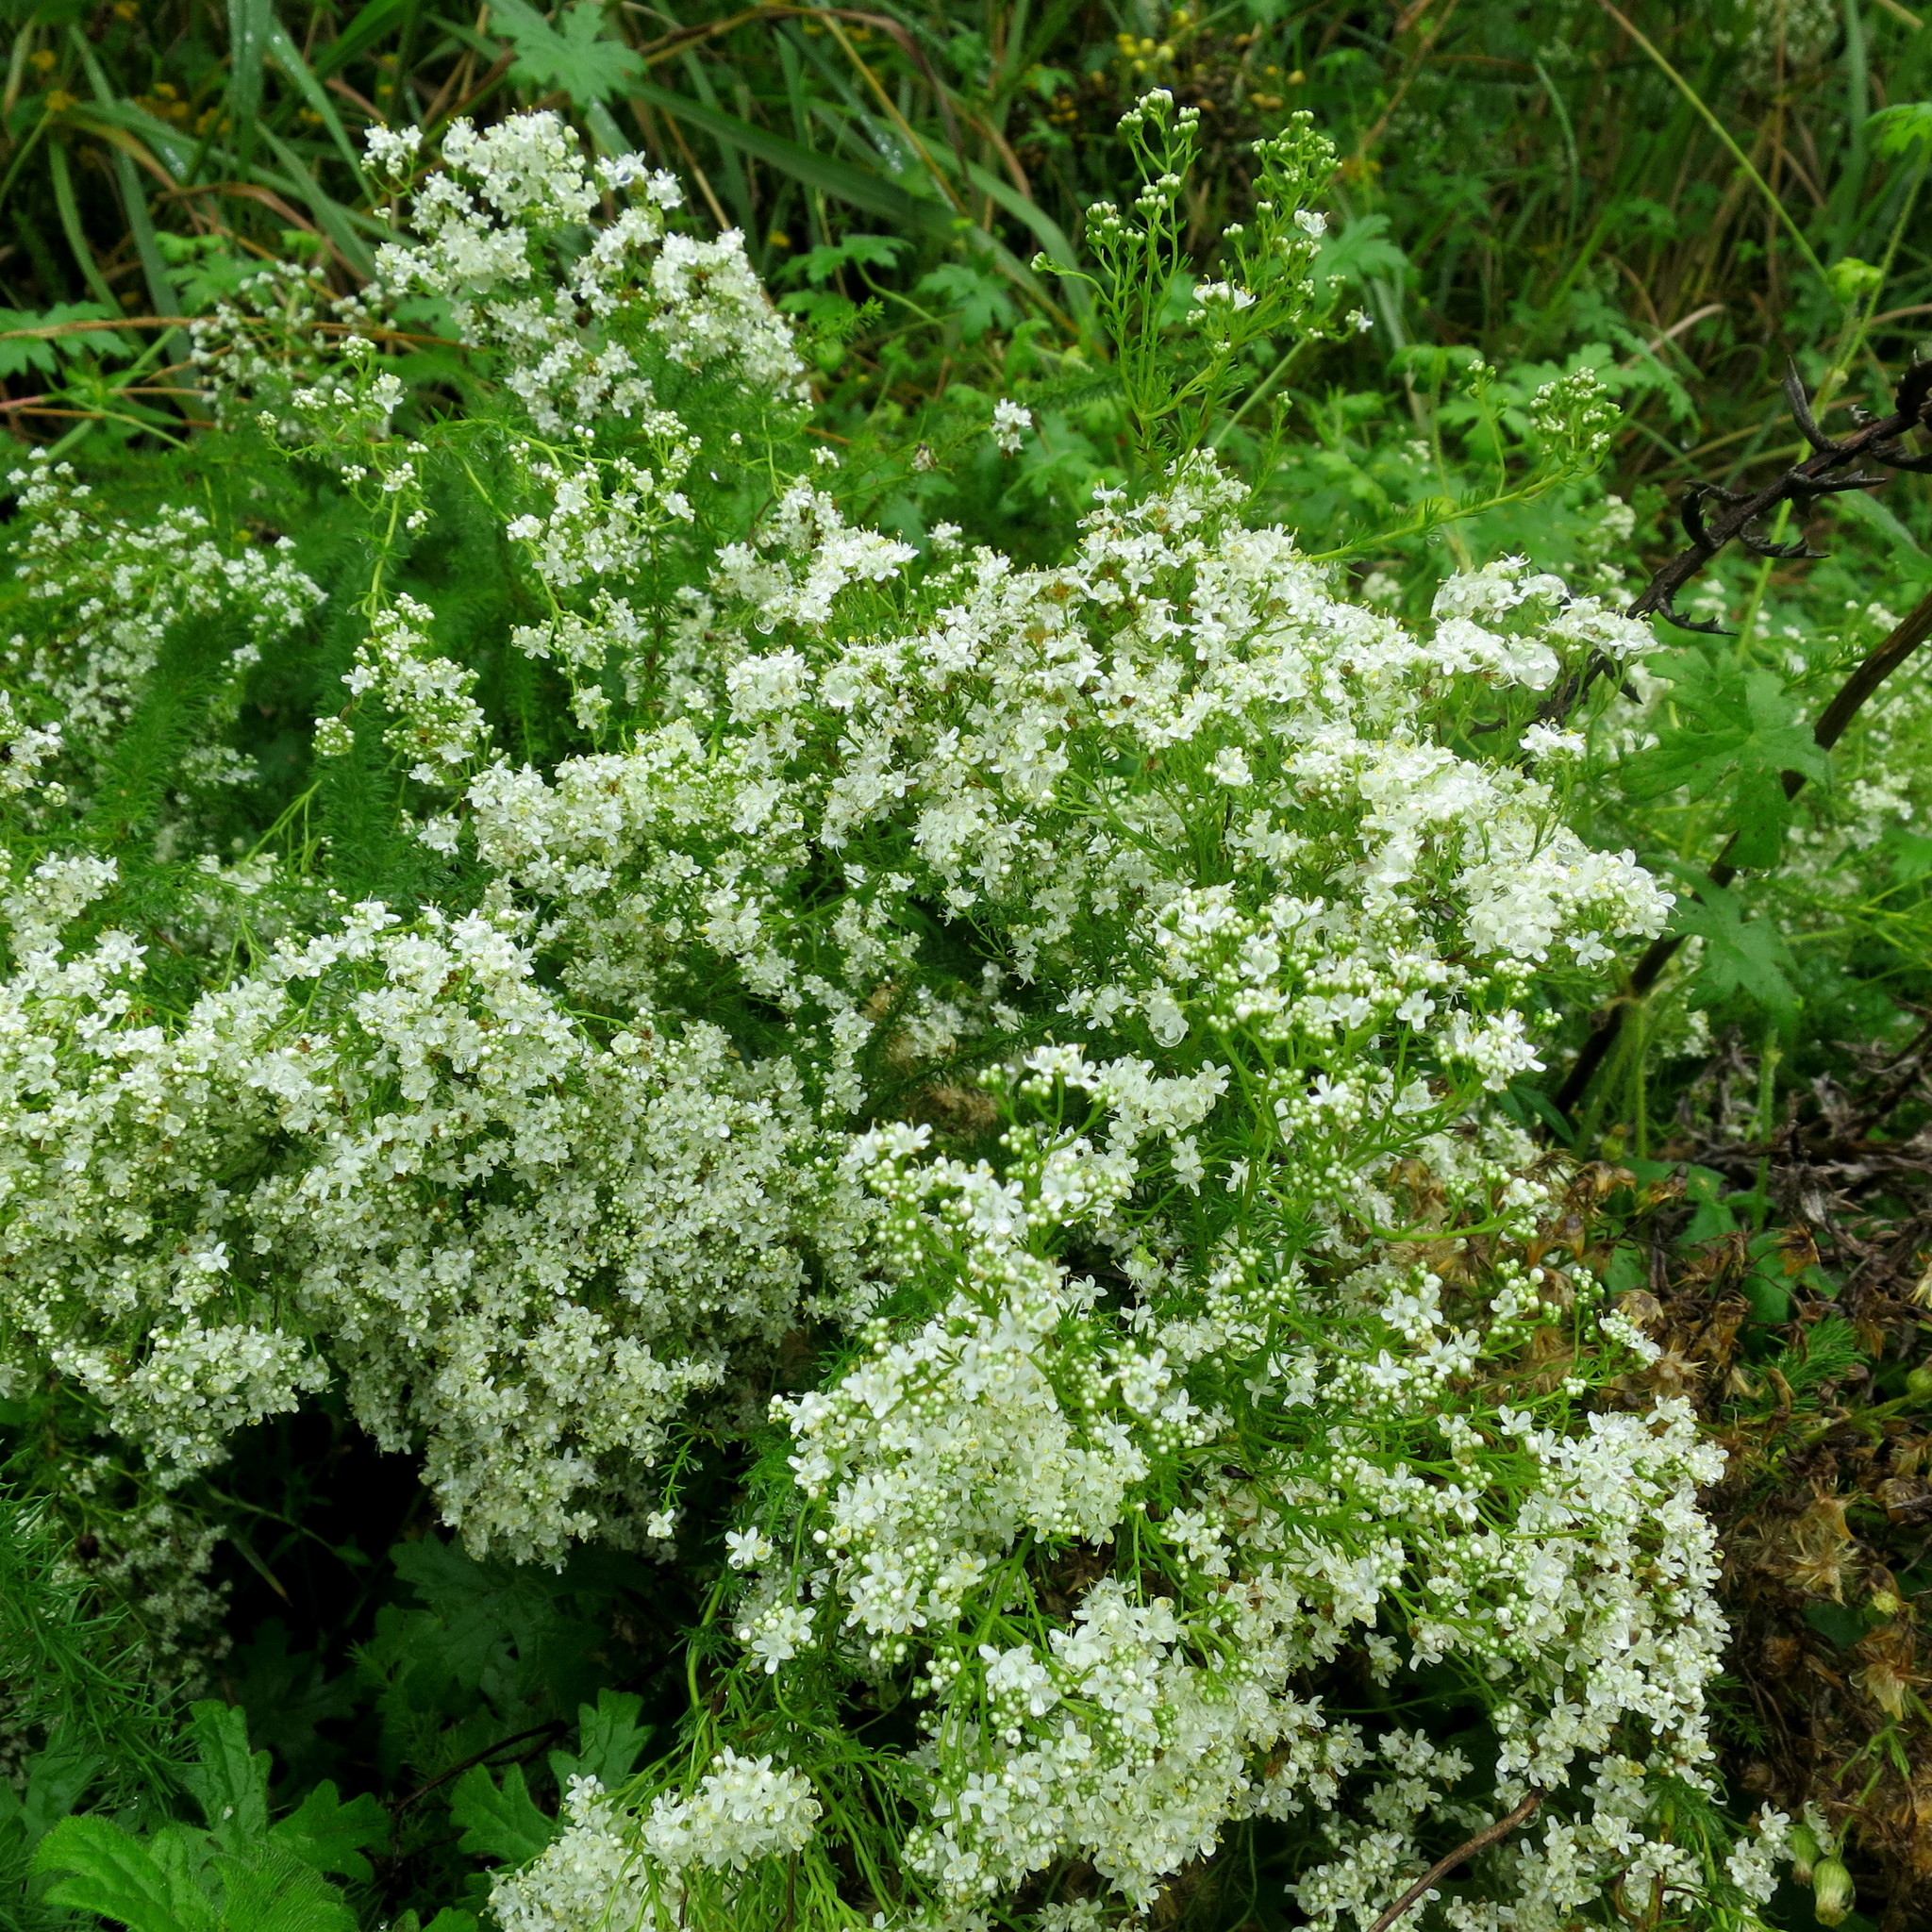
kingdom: Plantae
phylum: Tracheophyta
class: Magnoliopsida
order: Lamiales
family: Scrophulariaceae
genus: Selago
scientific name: Selago corymbosa
